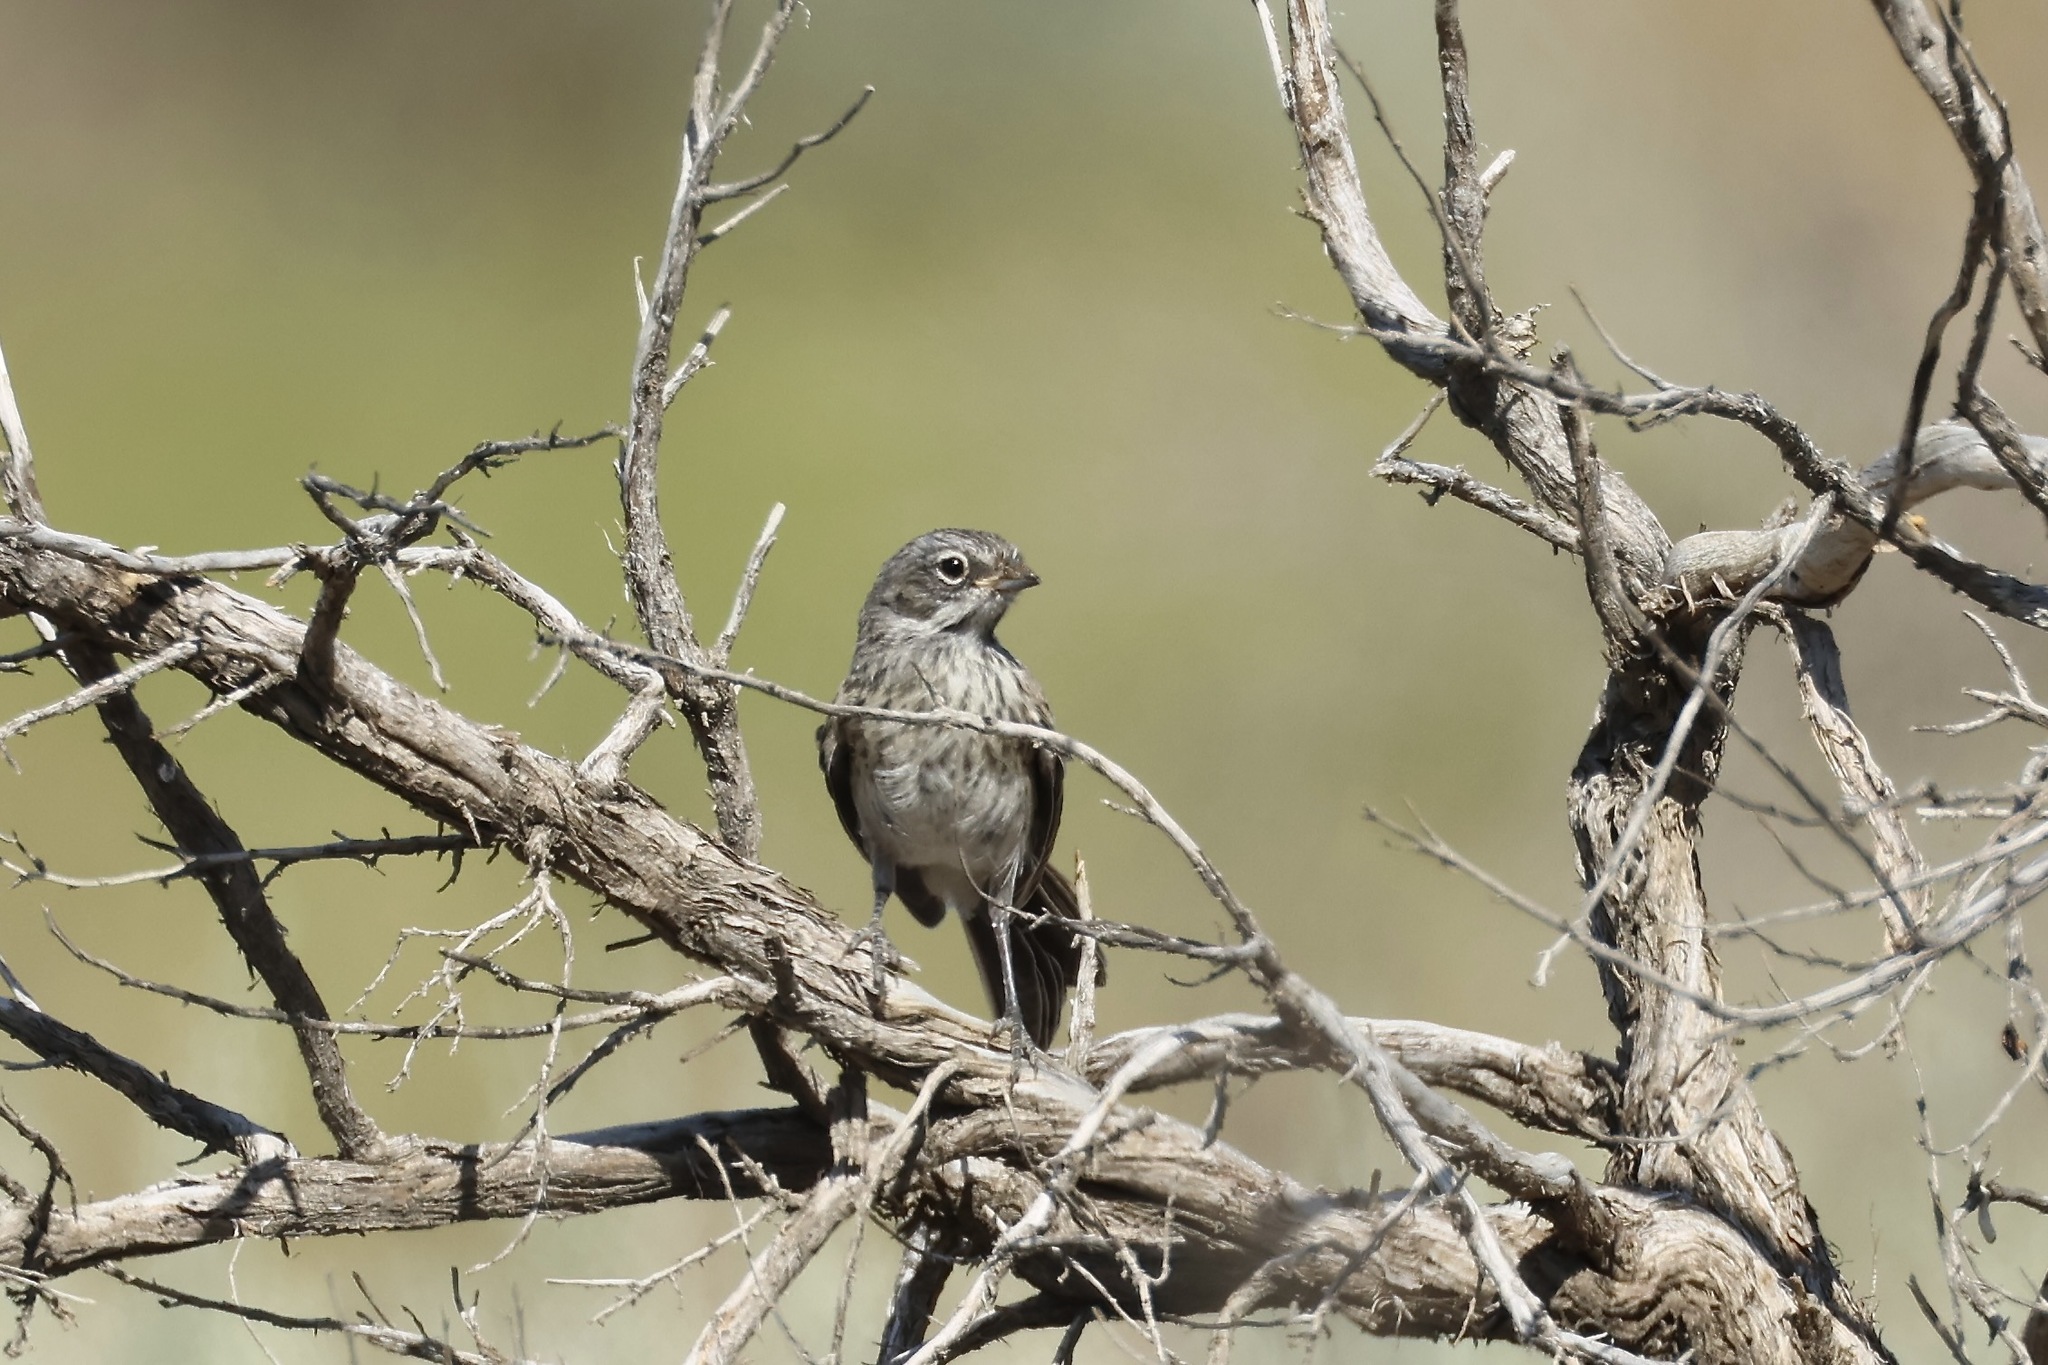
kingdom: Animalia
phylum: Chordata
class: Aves
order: Passeriformes
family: Passerellidae
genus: Artemisiospiza
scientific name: Artemisiospiza belli
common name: Bell's sparrow
